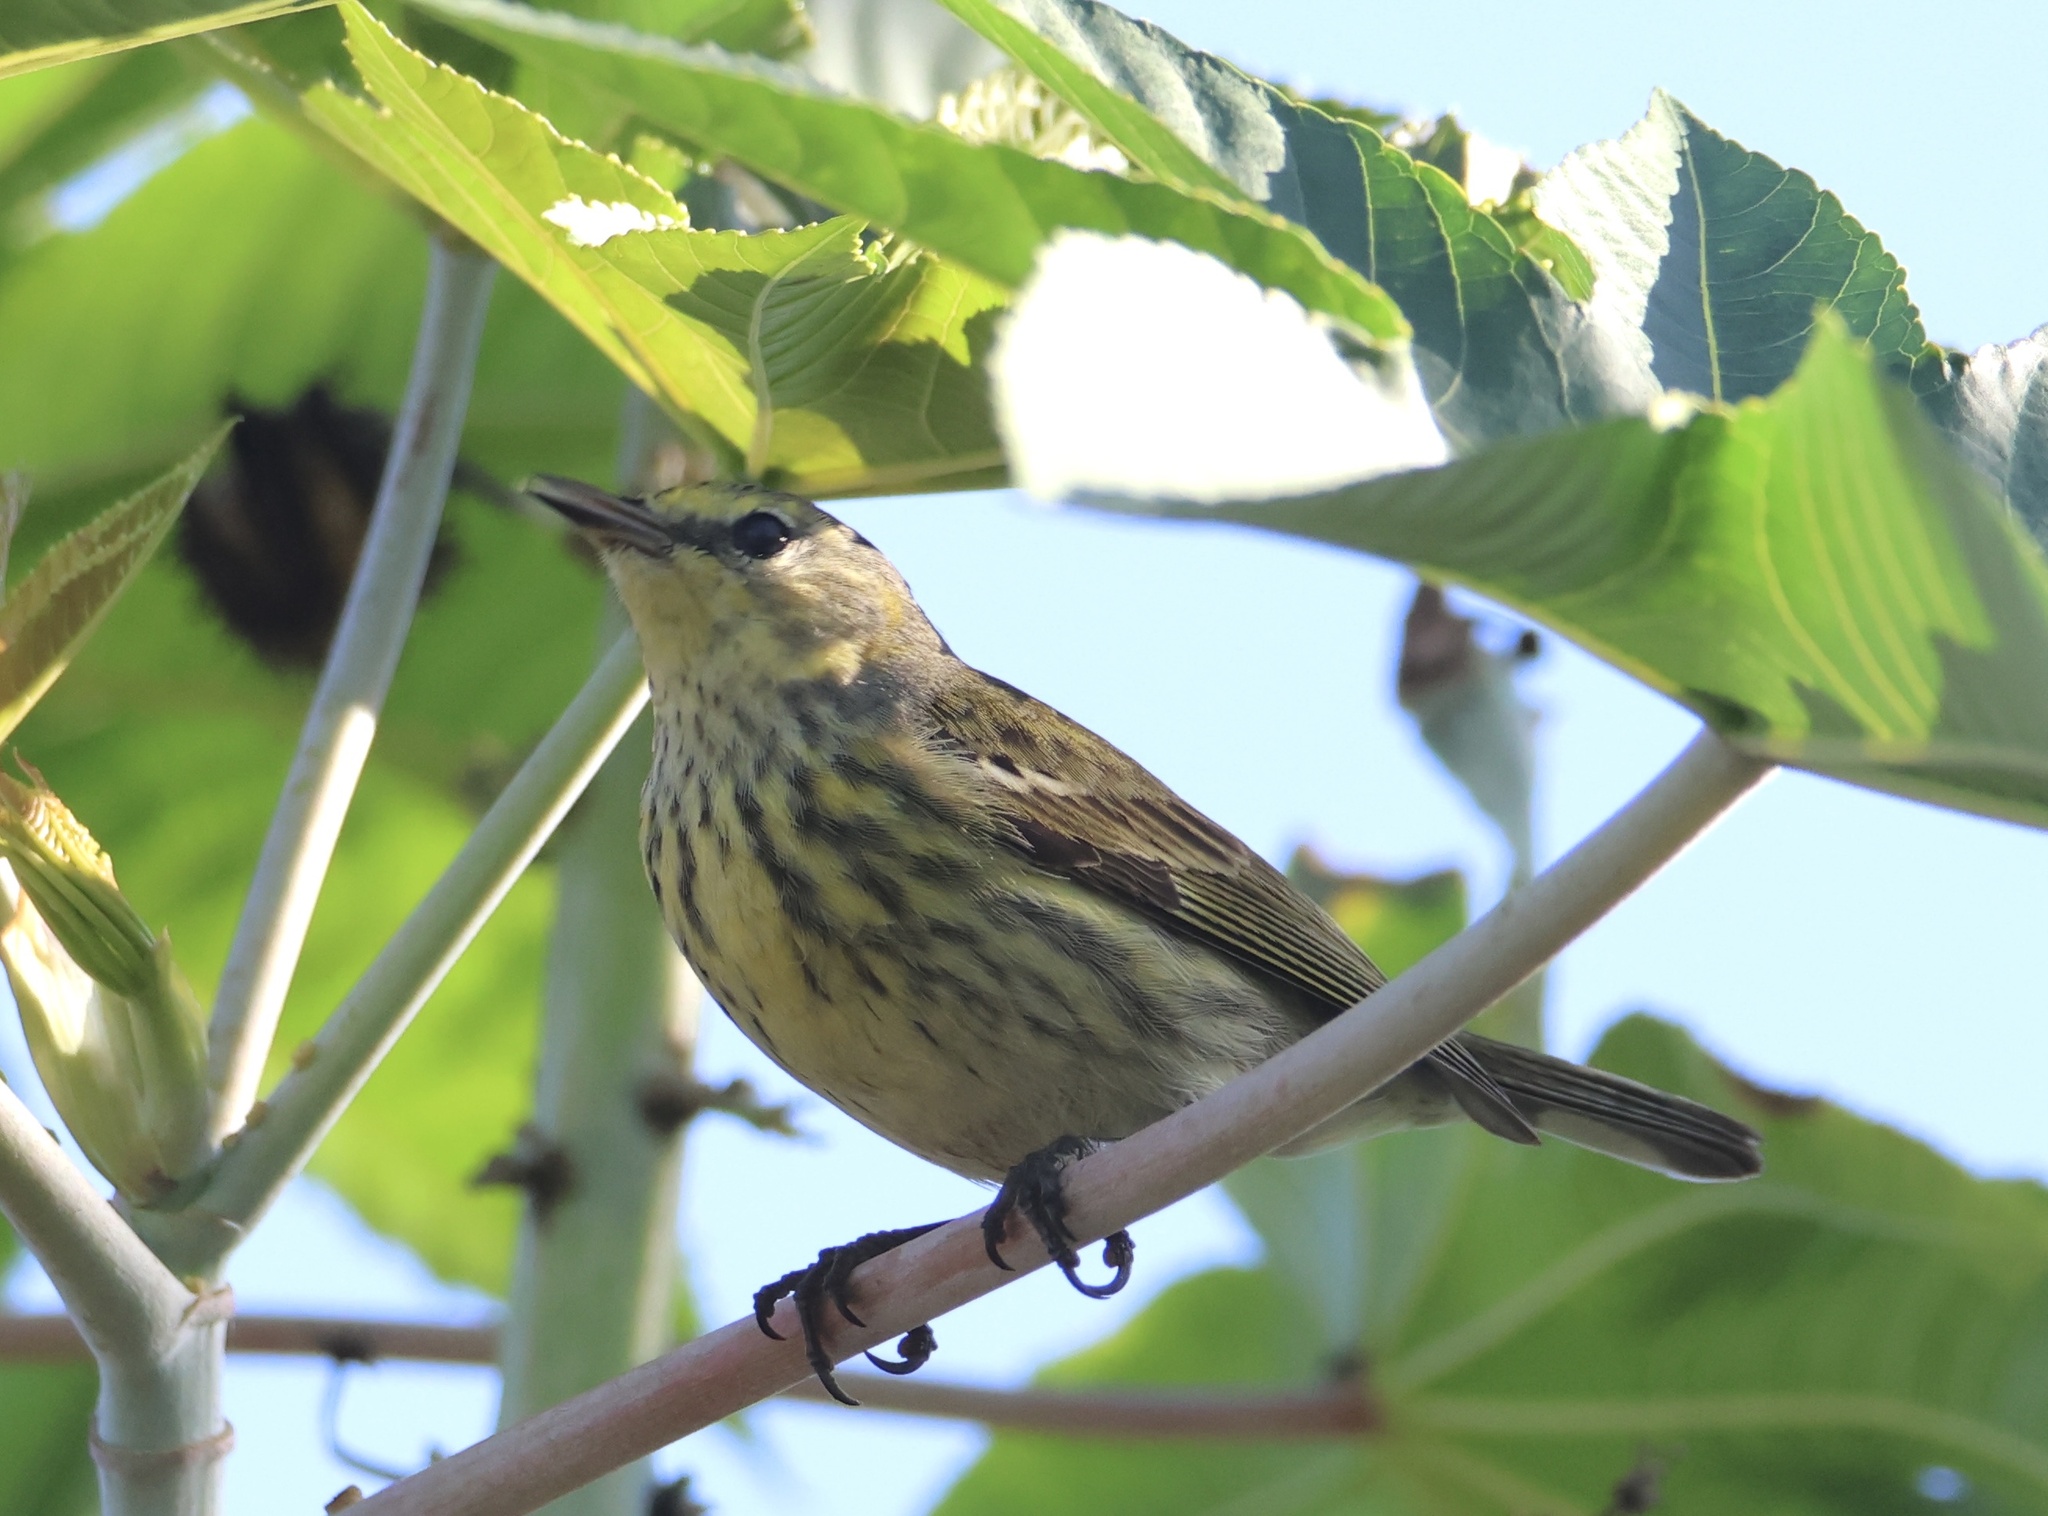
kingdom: Animalia
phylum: Chordata
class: Aves
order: Passeriformes
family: Parulidae
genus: Setophaga
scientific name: Setophaga tigrina
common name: Cape may warbler
